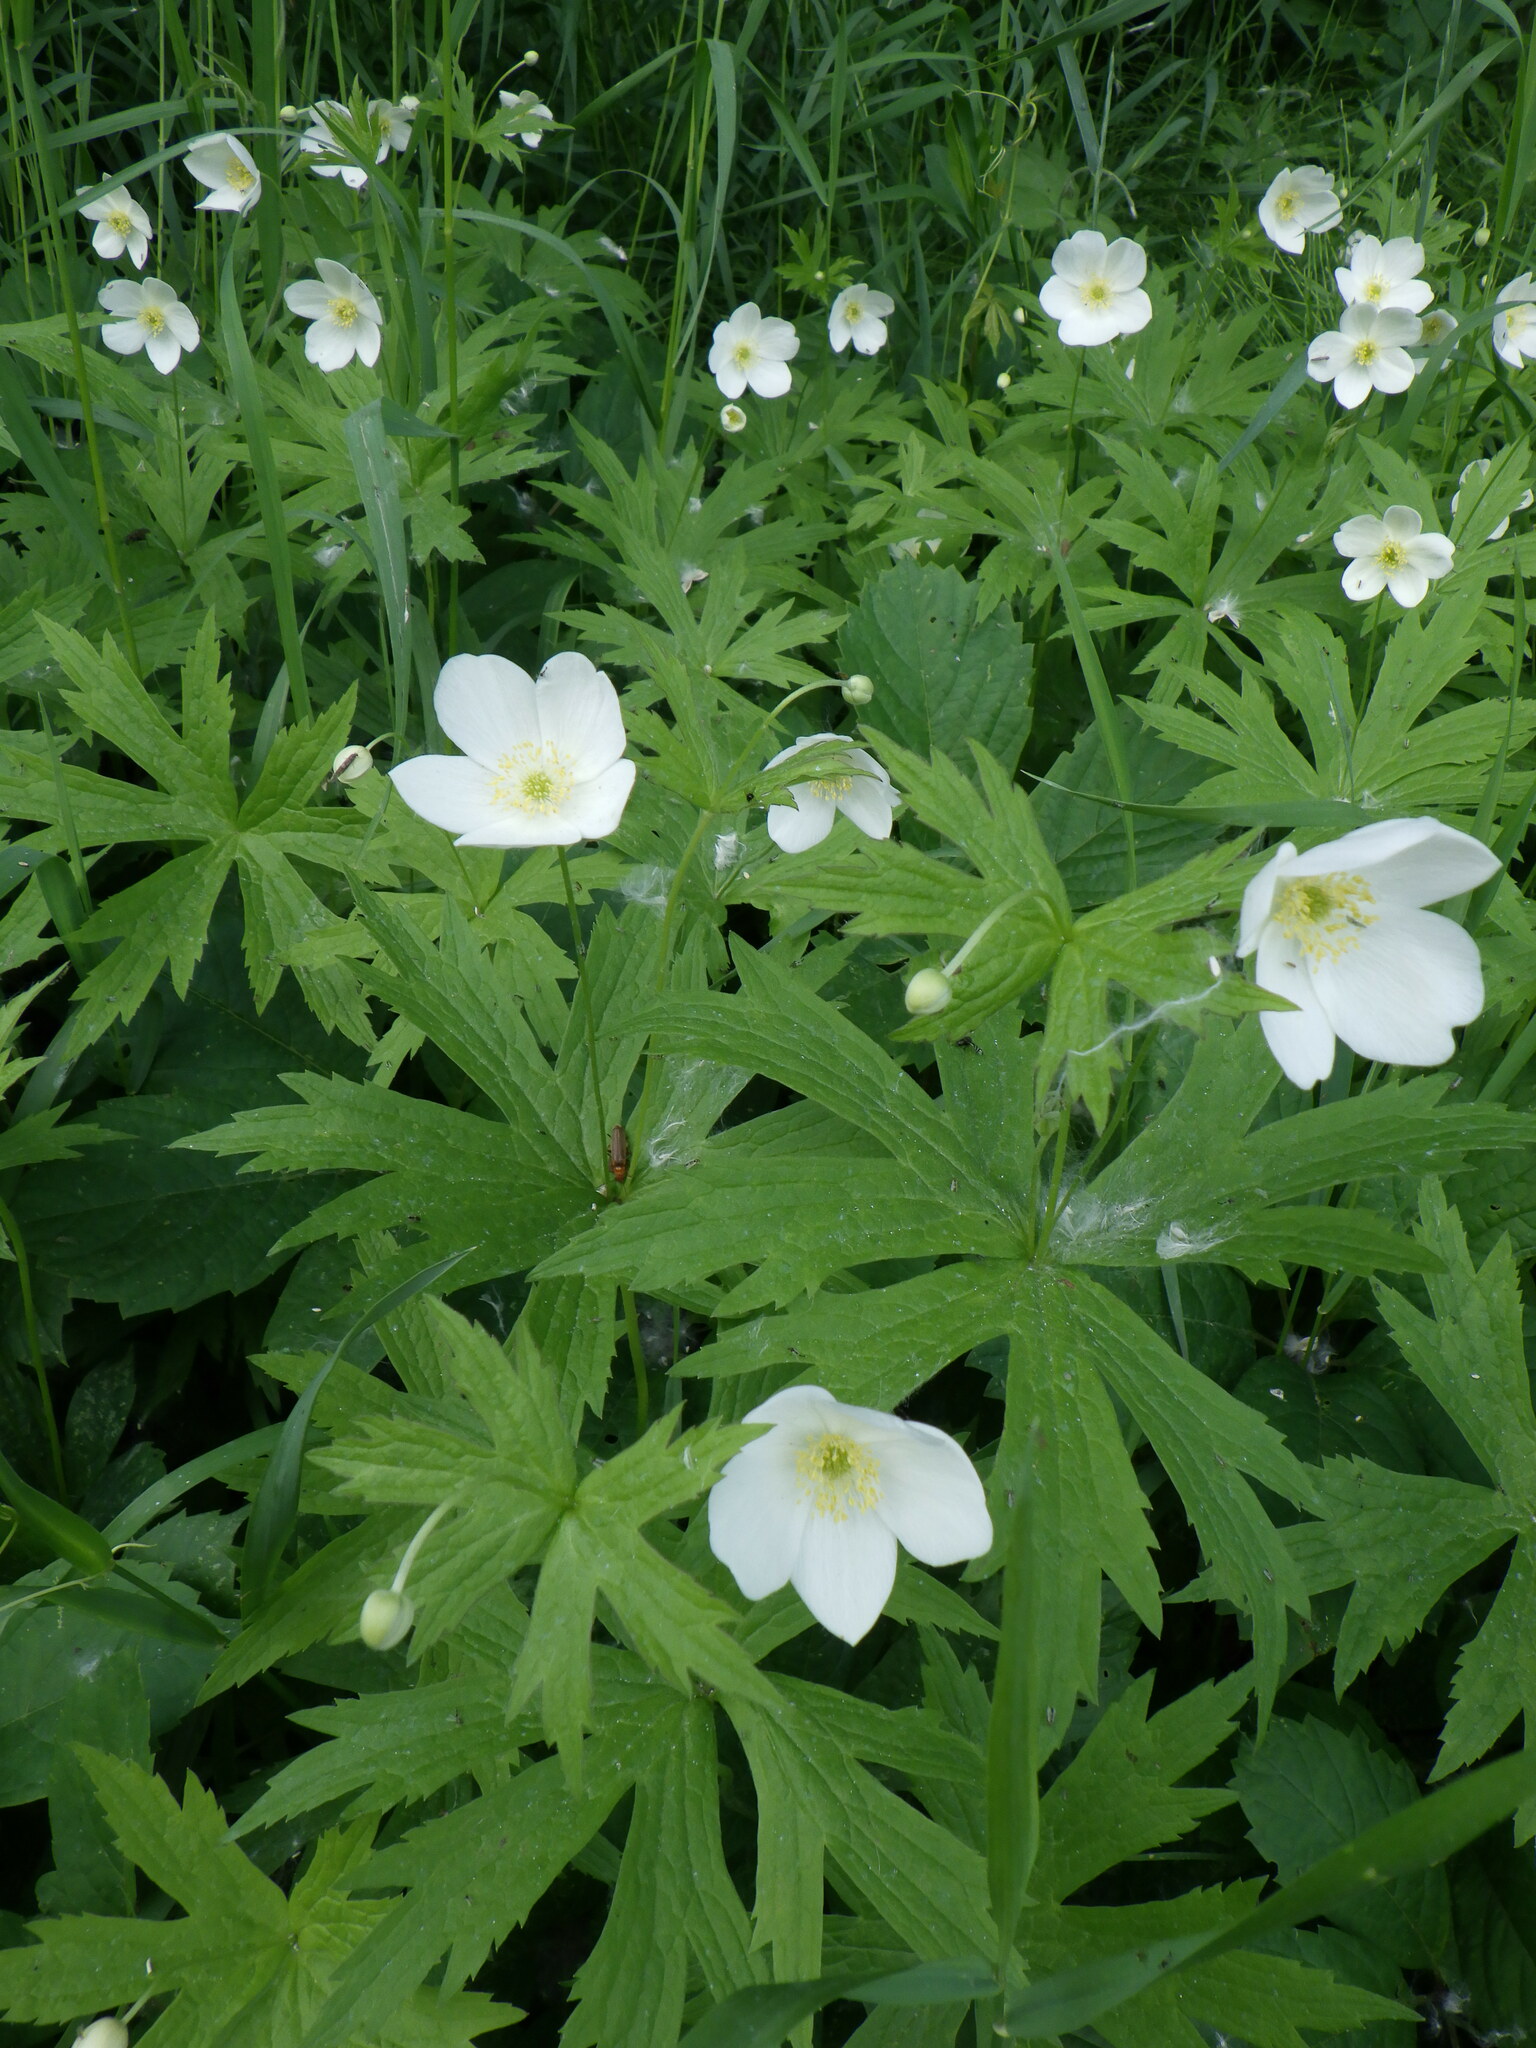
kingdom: Plantae
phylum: Tracheophyta
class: Magnoliopsida
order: Ranunculales
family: Ranunculaceae
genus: Anemonastrum
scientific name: Anemonastrum canadense
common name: Canada anemone
